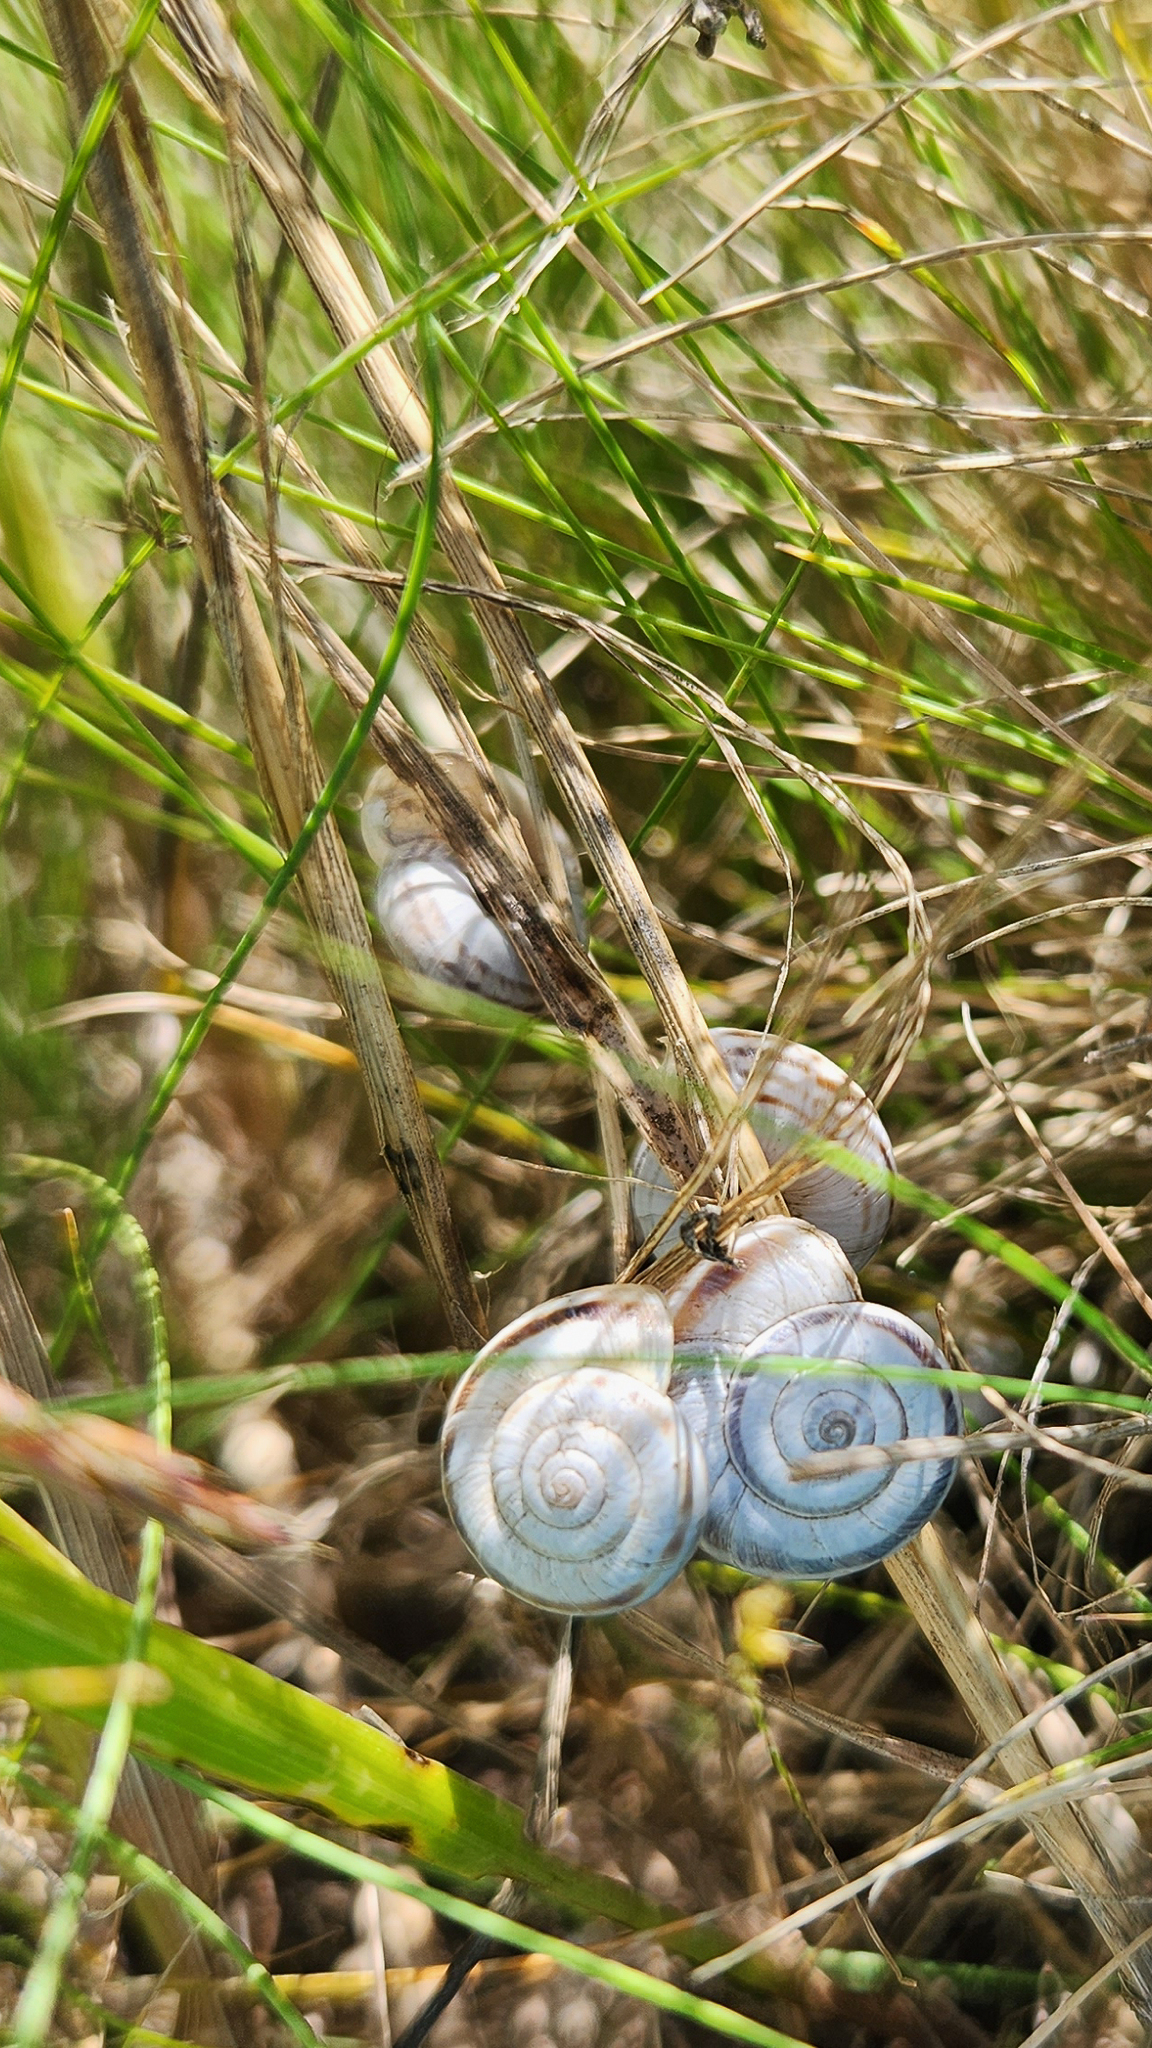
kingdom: Animalia
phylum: Mollusca
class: Gastropoda
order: Stylommatophora
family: Geomitridae
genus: Xerolenta
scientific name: Xerolenta obvia
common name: White heath snail
